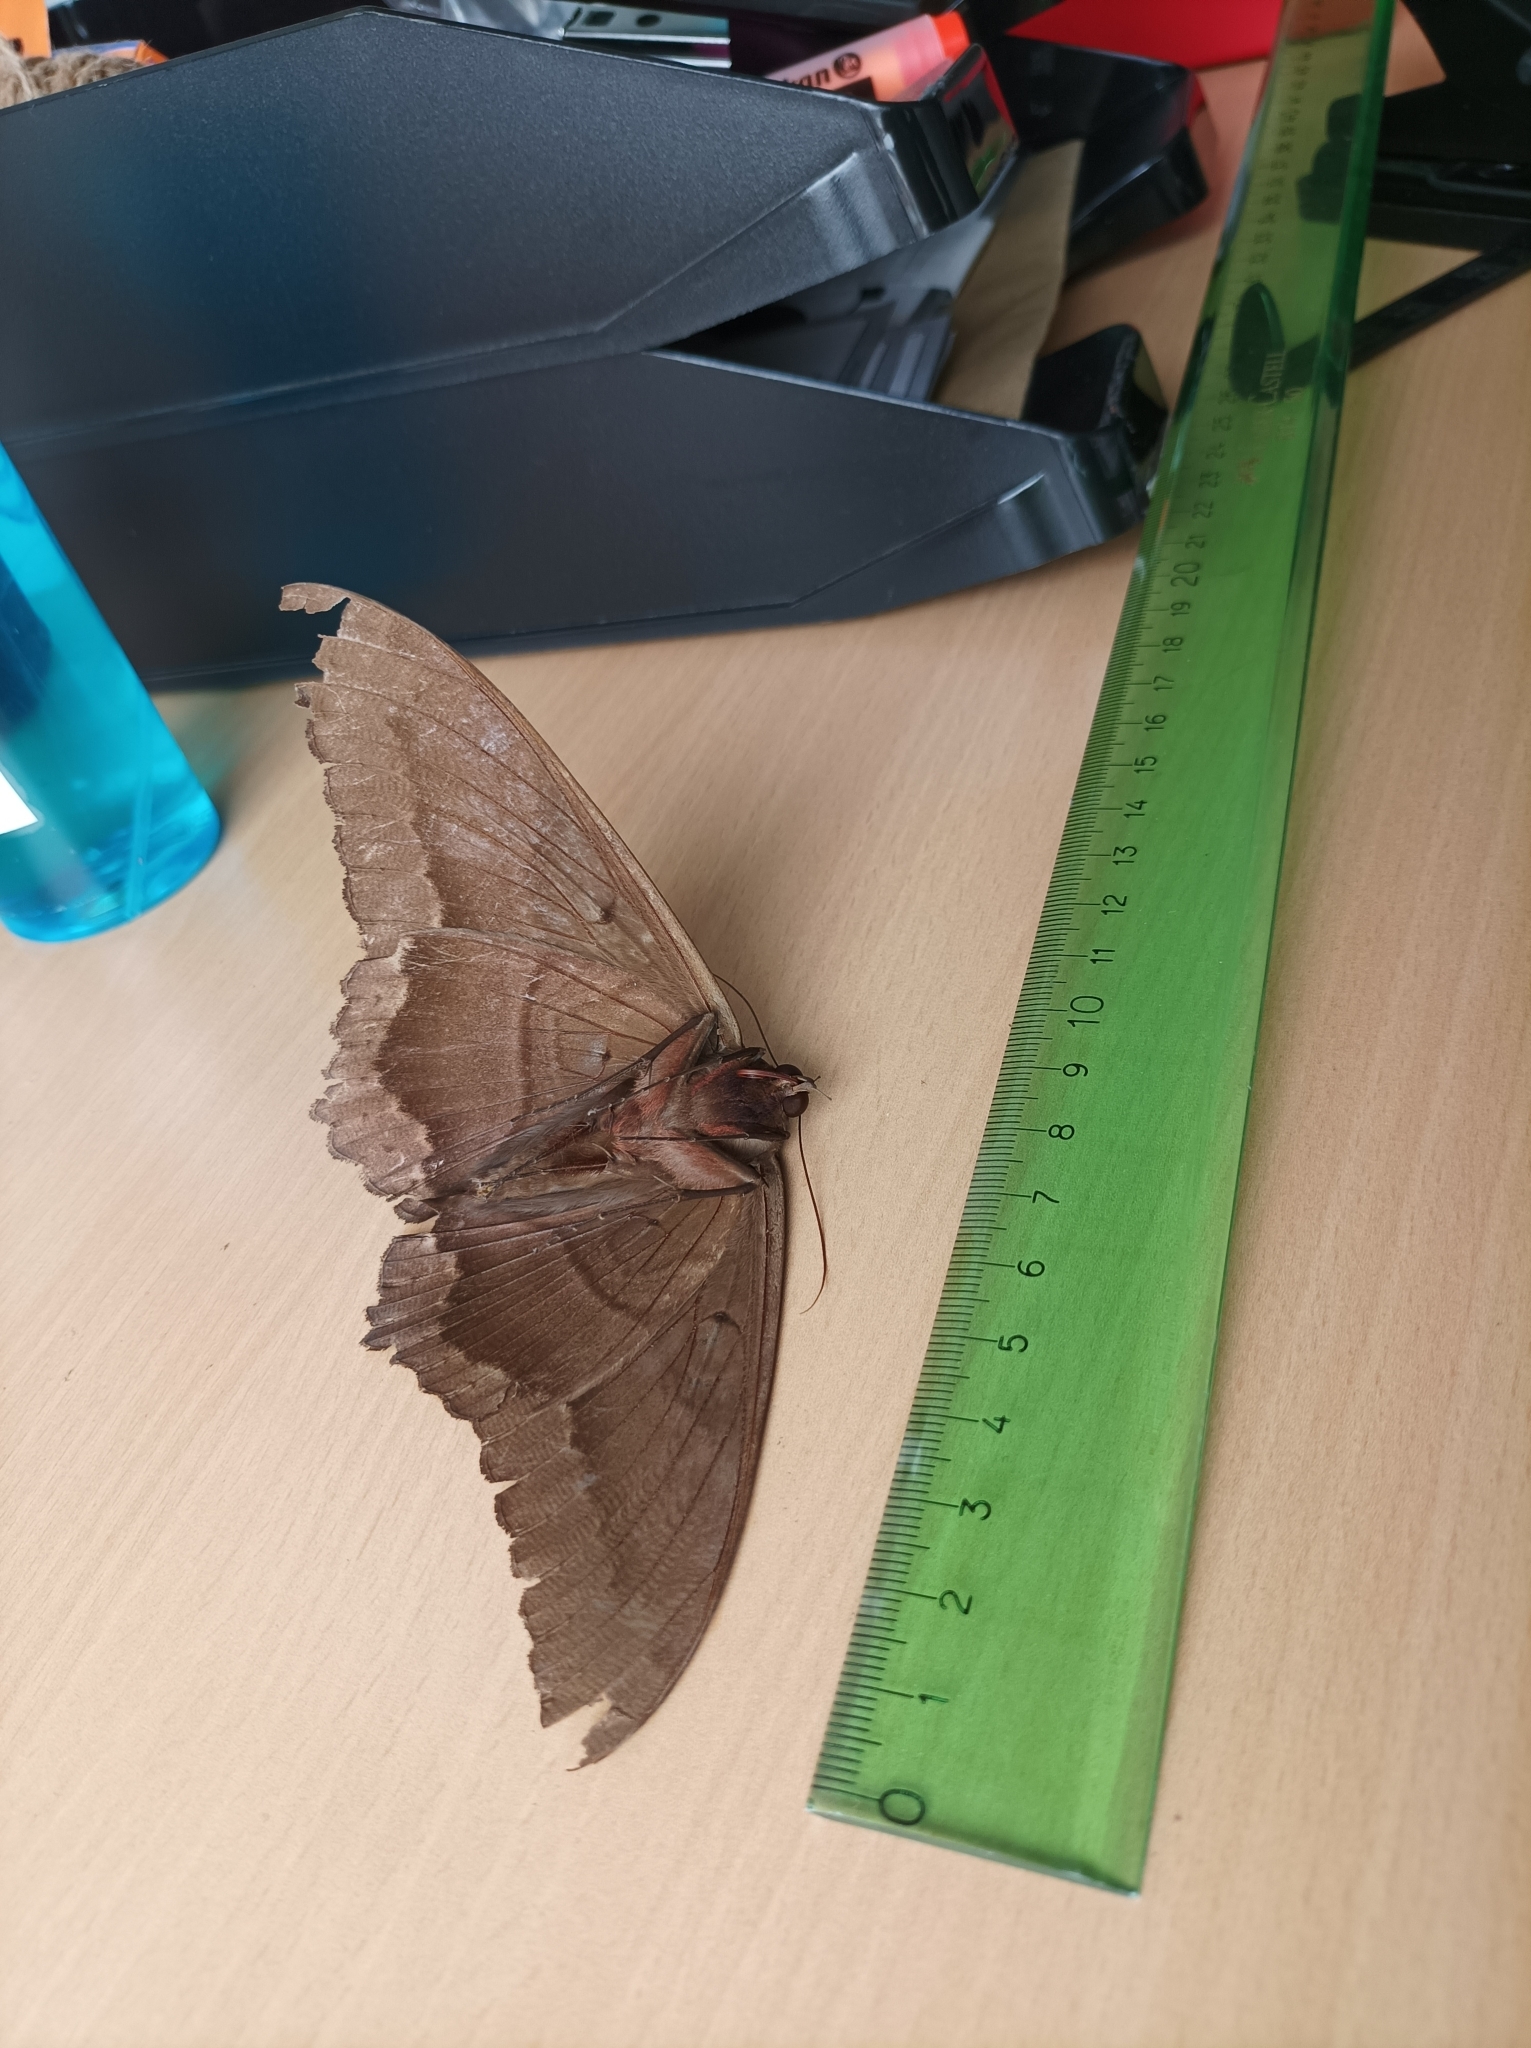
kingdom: Animalia
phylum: Arthropoda
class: Insecta
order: Lepidoptera
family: Erebidae
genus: Ascalapha
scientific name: Ascalapha odorata
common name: Black witch
